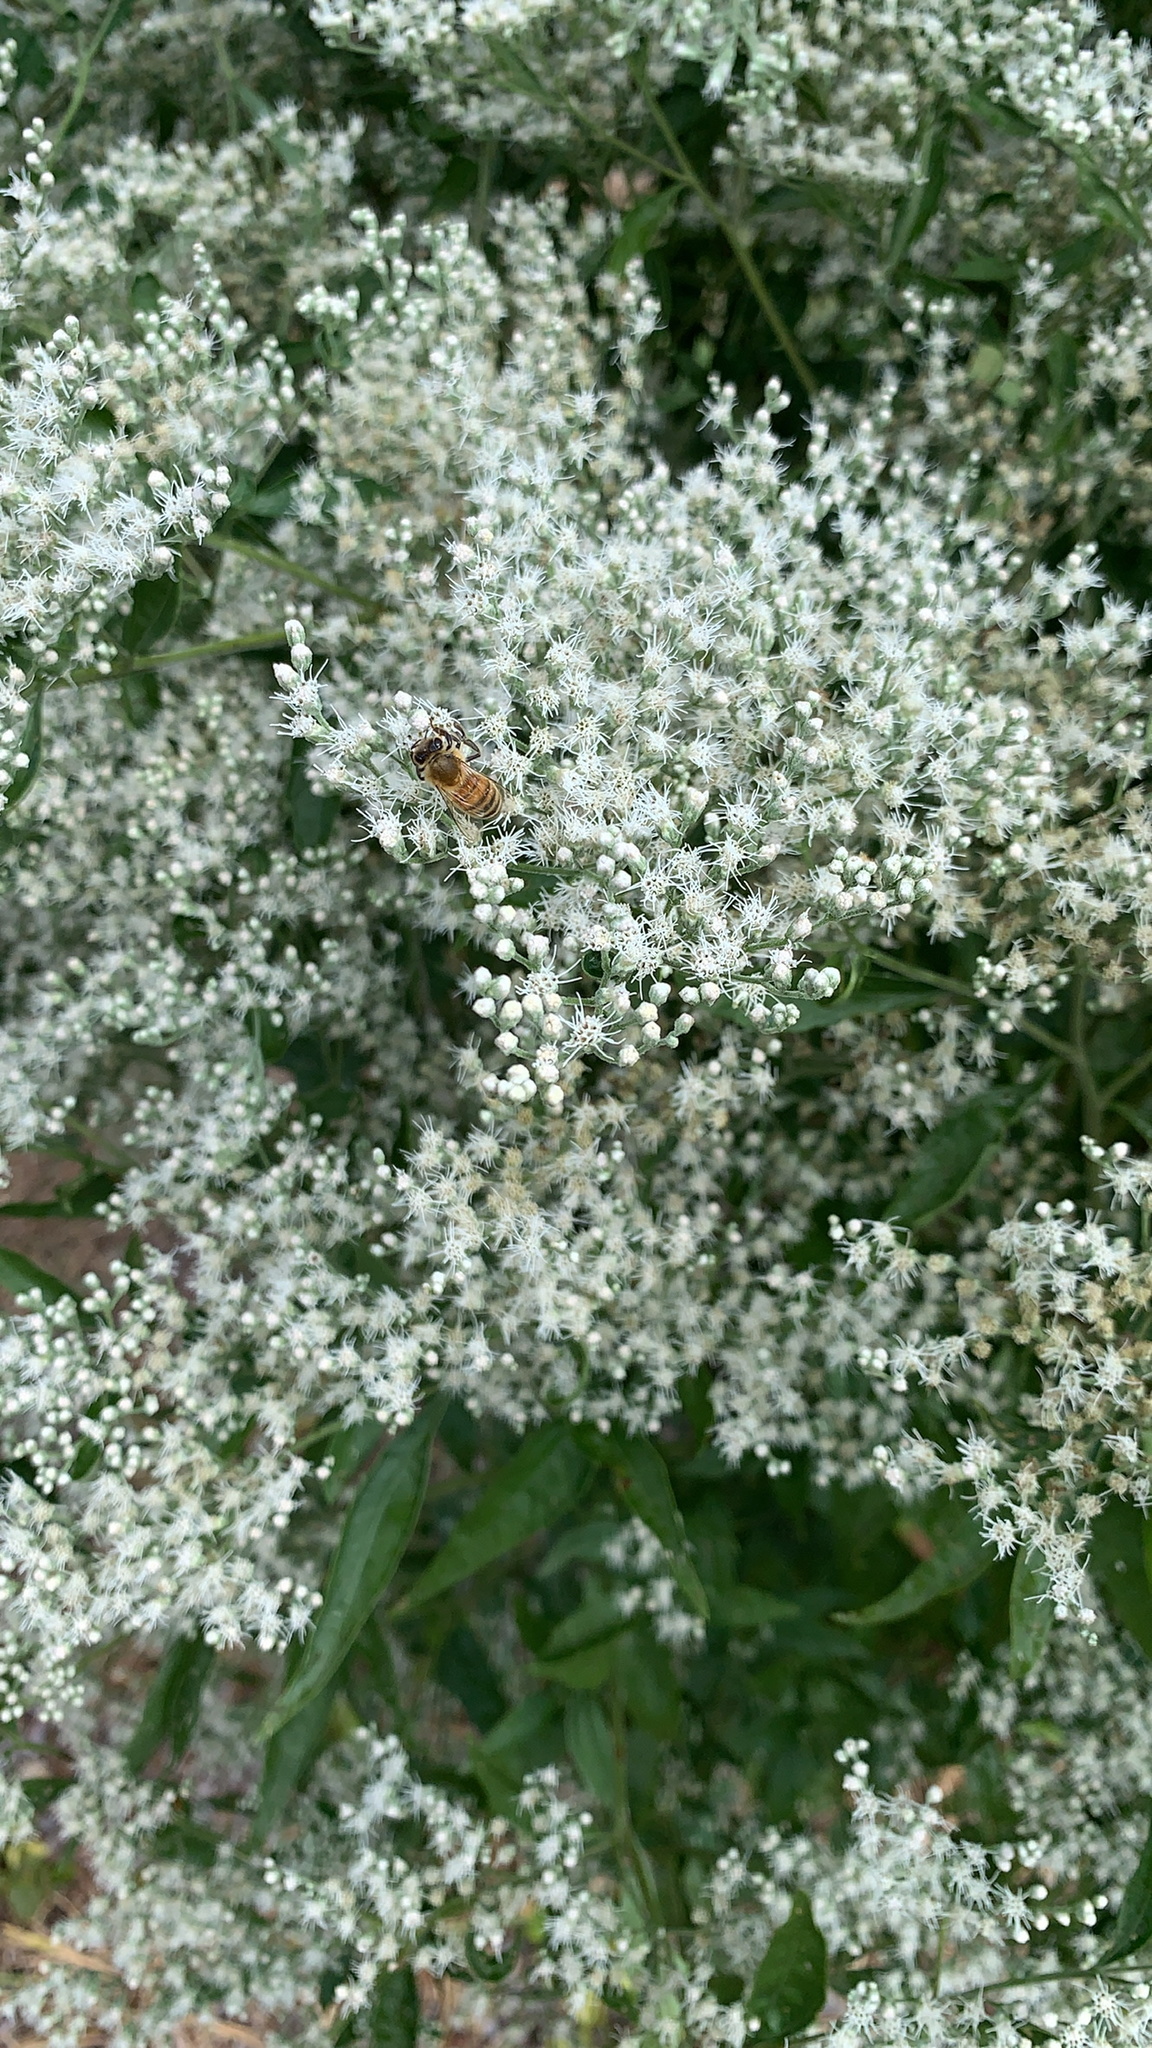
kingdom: Plantae
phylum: Tracheophyta
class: Magnoliopsida
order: Asterales
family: Asteraceae
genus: Eupatorium
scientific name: Eupatorium serotinum
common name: Late boneset
